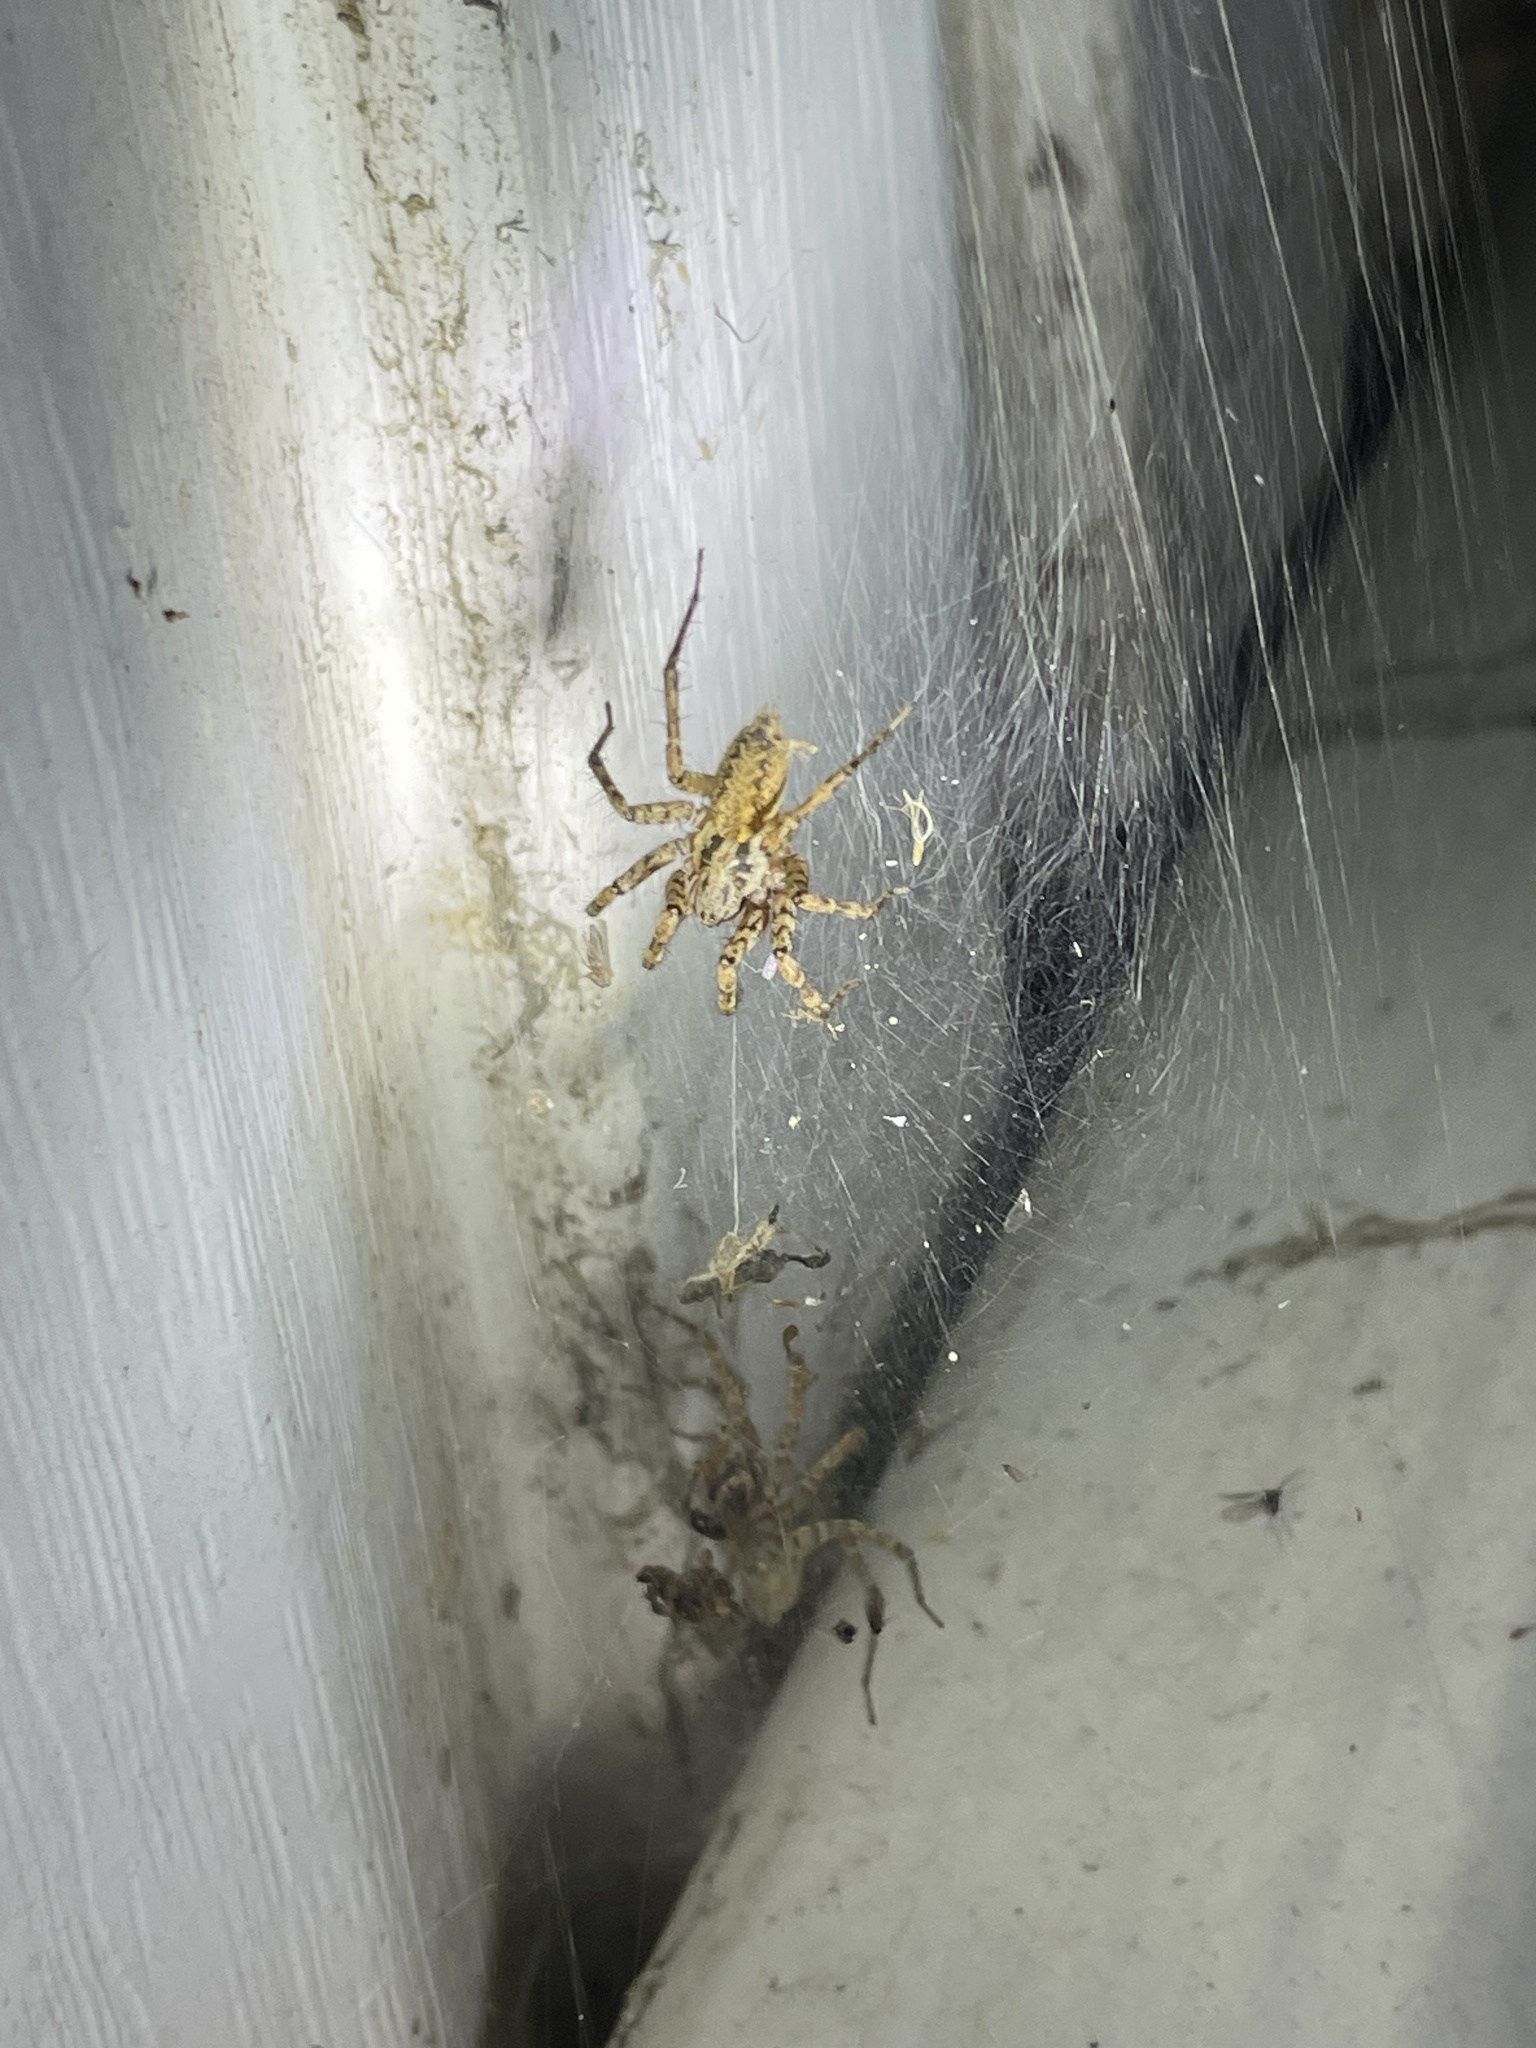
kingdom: Animalia
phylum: Arthropoda
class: Arachnida
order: Araneae
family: Agelenidae
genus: Barronopsis
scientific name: Barronopsis jeffersi
